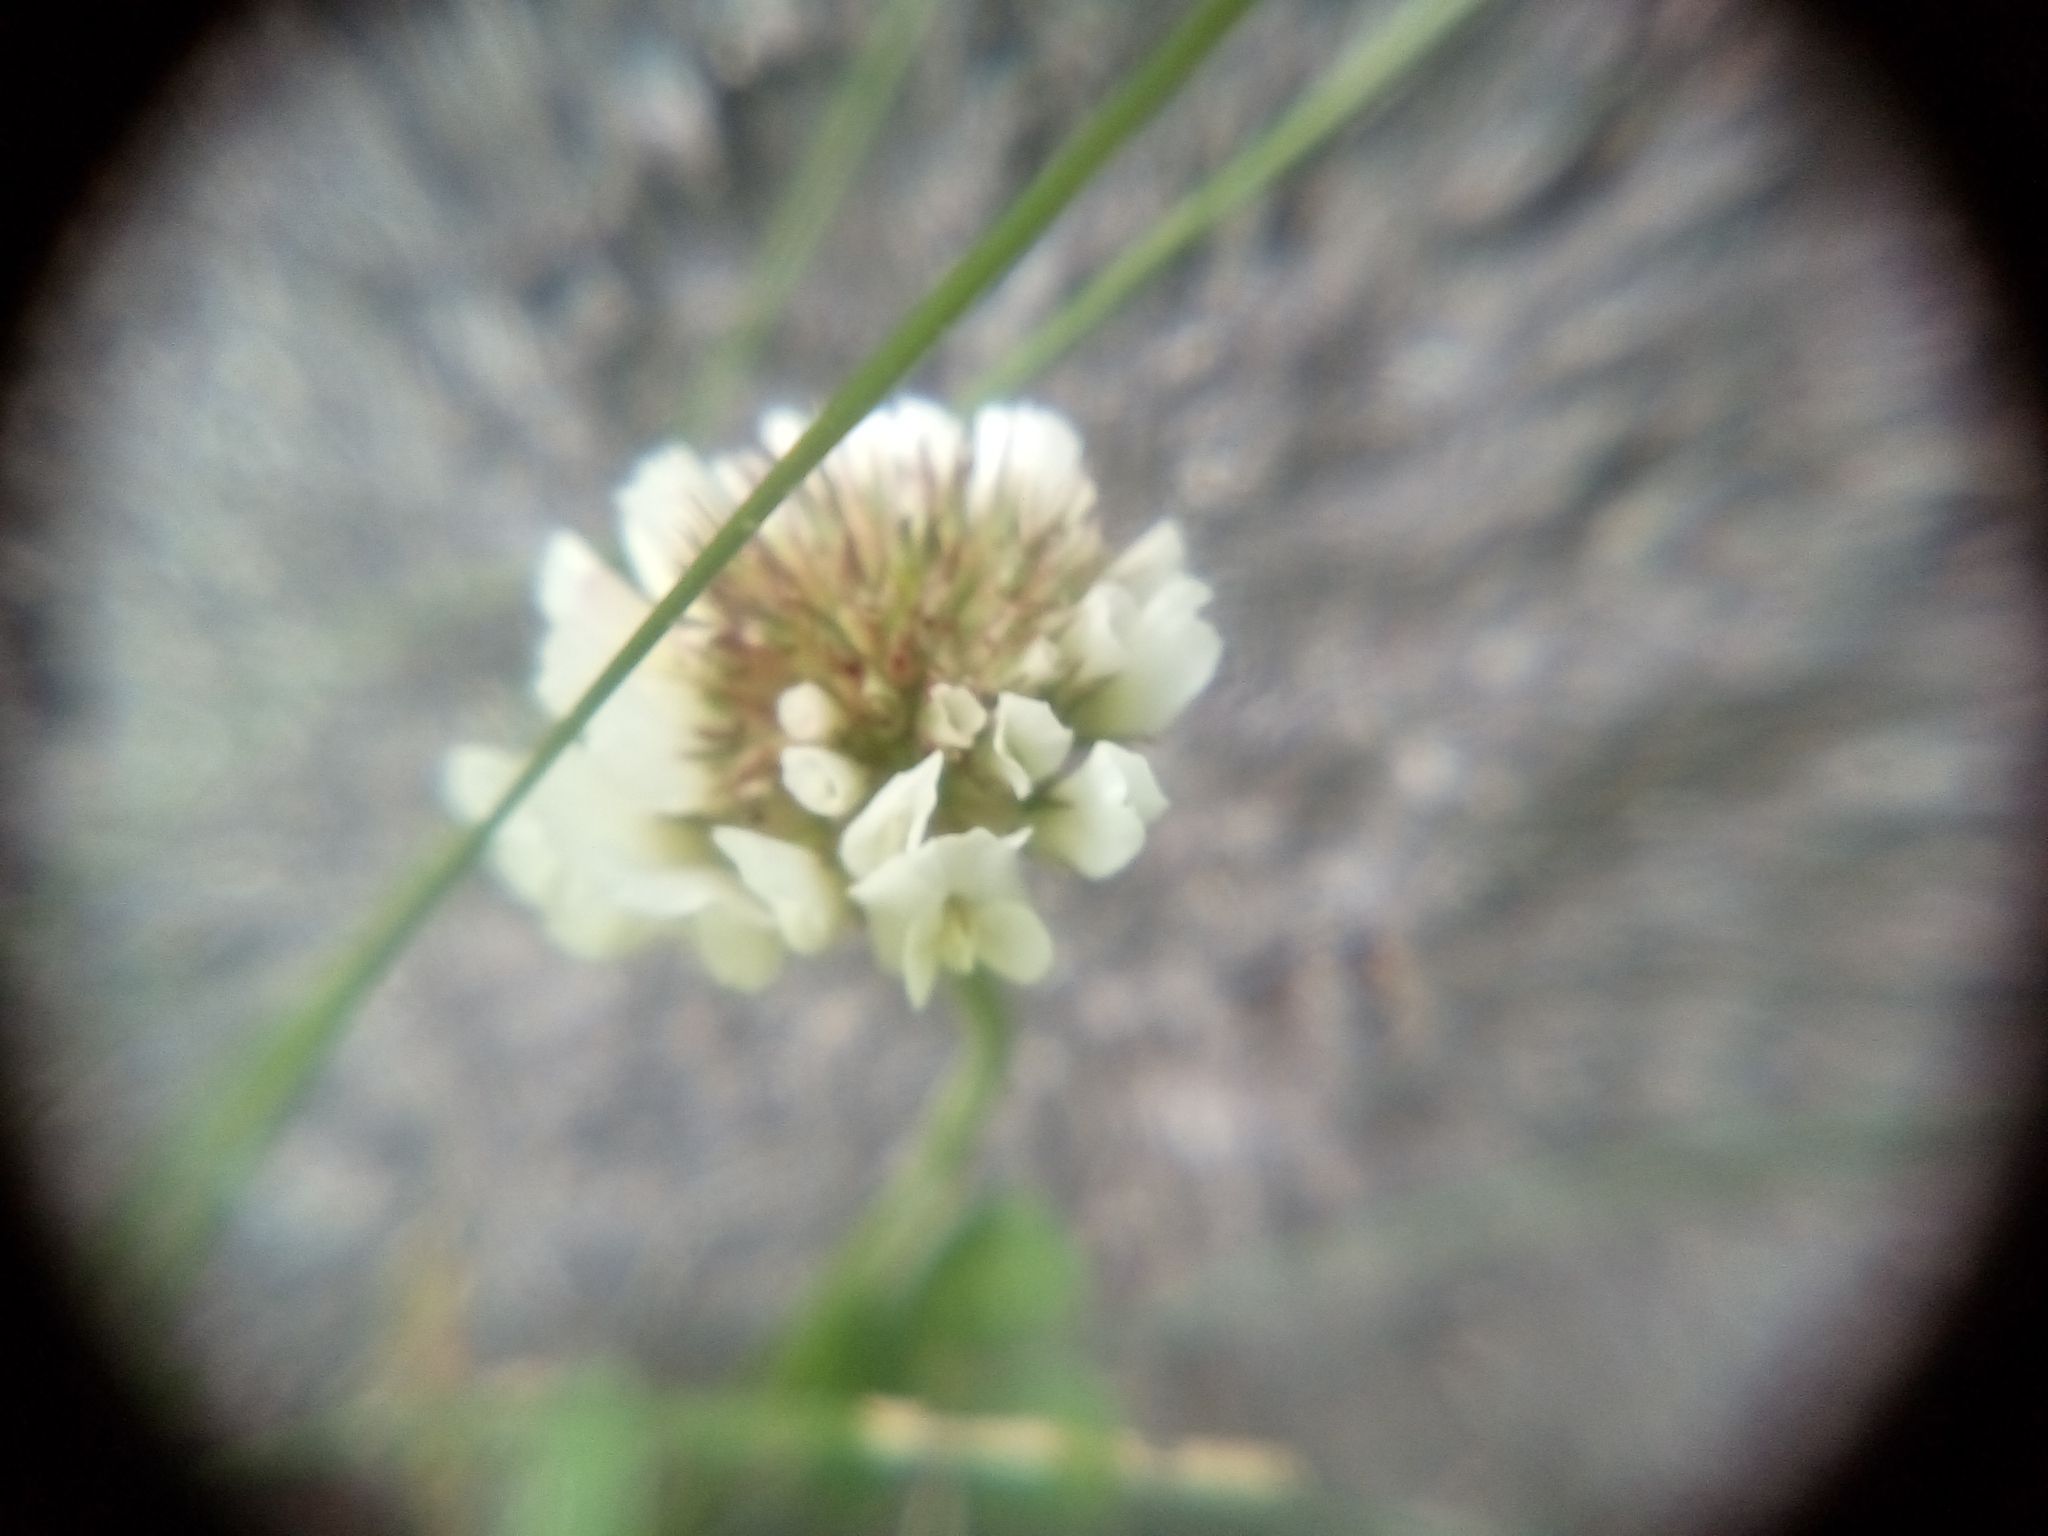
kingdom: Plantae
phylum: Tracheophyta
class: Magnoliopsida
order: Fabales
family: Fabaceae
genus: Trifolium
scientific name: Trifolium repens
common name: White clover
